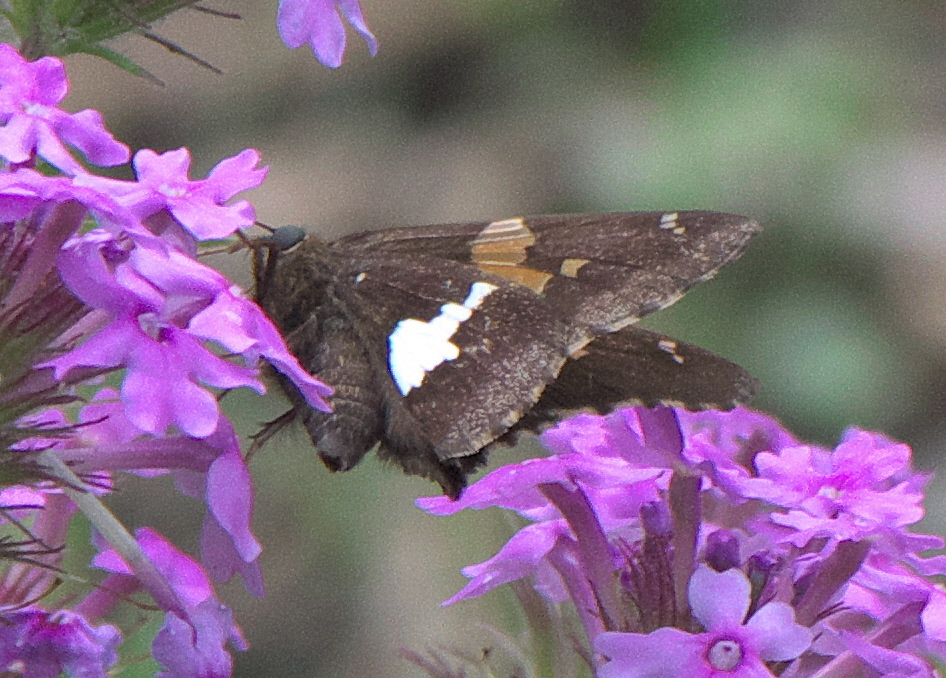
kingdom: Animalia
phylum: Arthropoda
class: Insecta
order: Lepidoptera
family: Hesperiidae
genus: Epargyreus
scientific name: Epargyreus clarus
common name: Silver-spotted skipper
